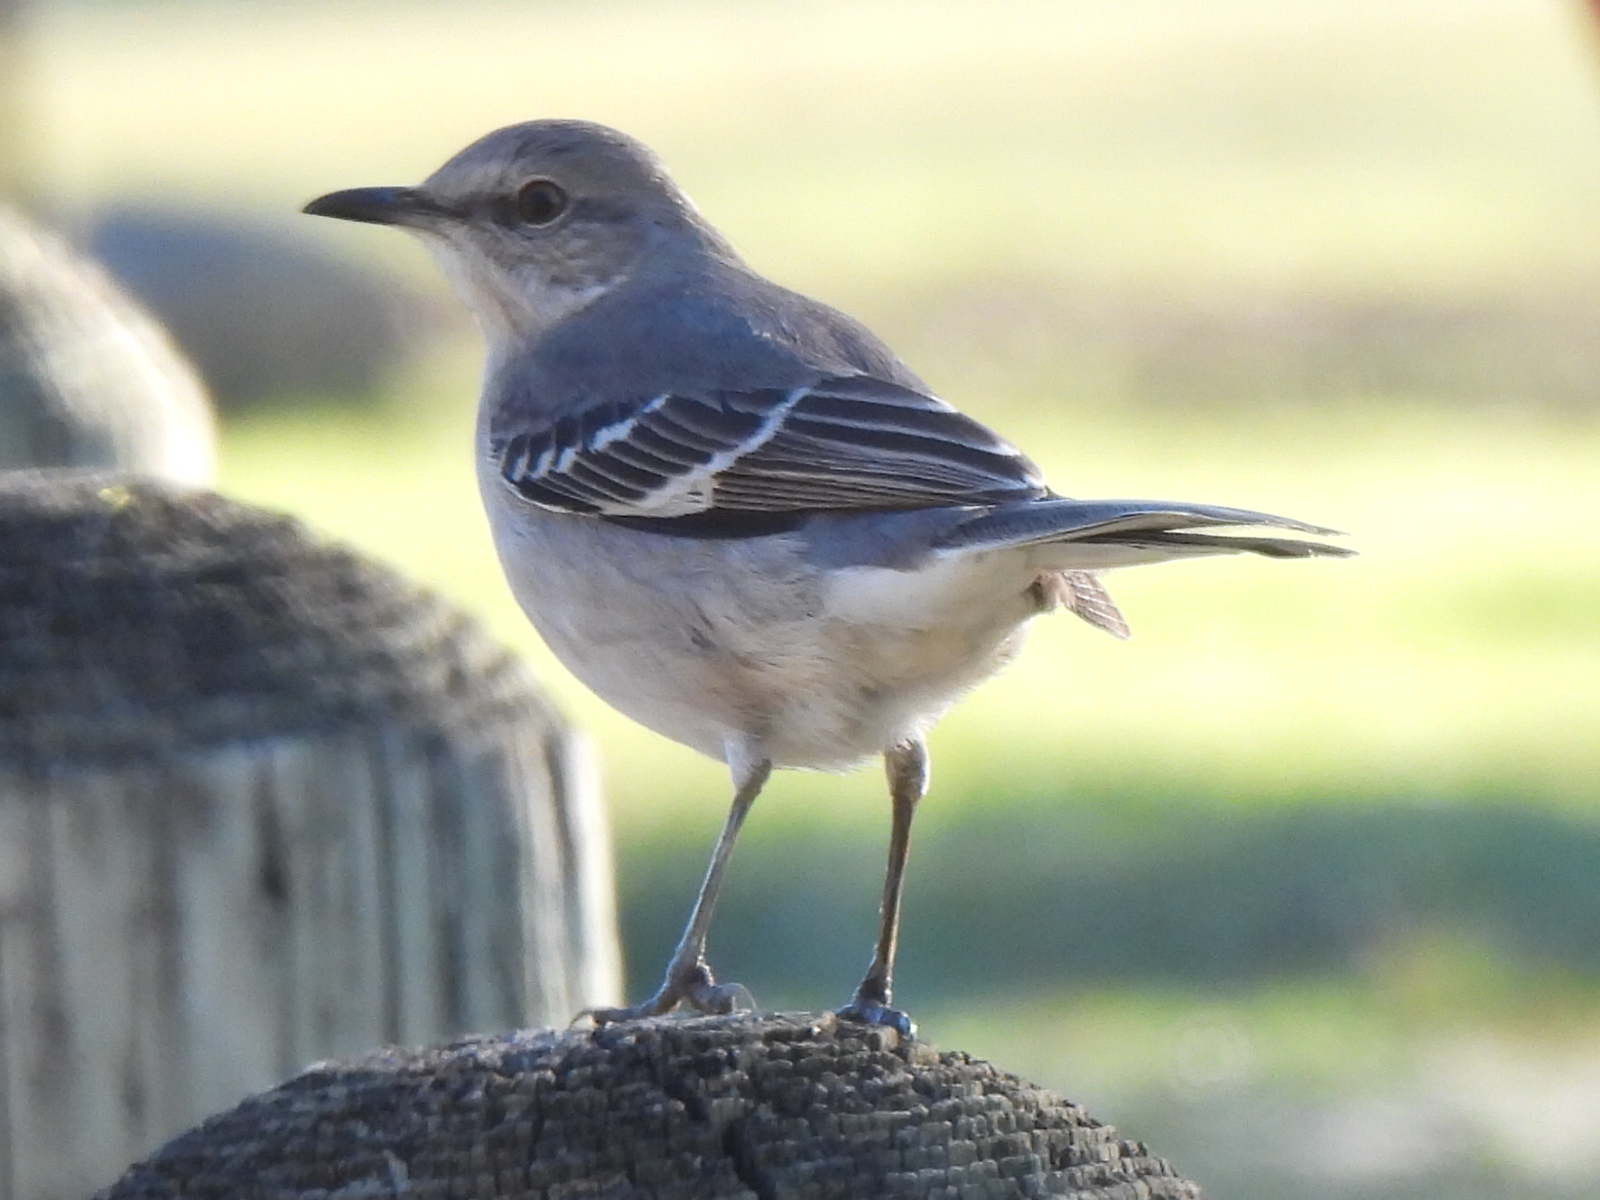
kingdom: Animalia
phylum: Chordata
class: Aves
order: Passeriformes
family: Mimidae
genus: Mimus
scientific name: Mimus polyglottos
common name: Northern mockingbird
